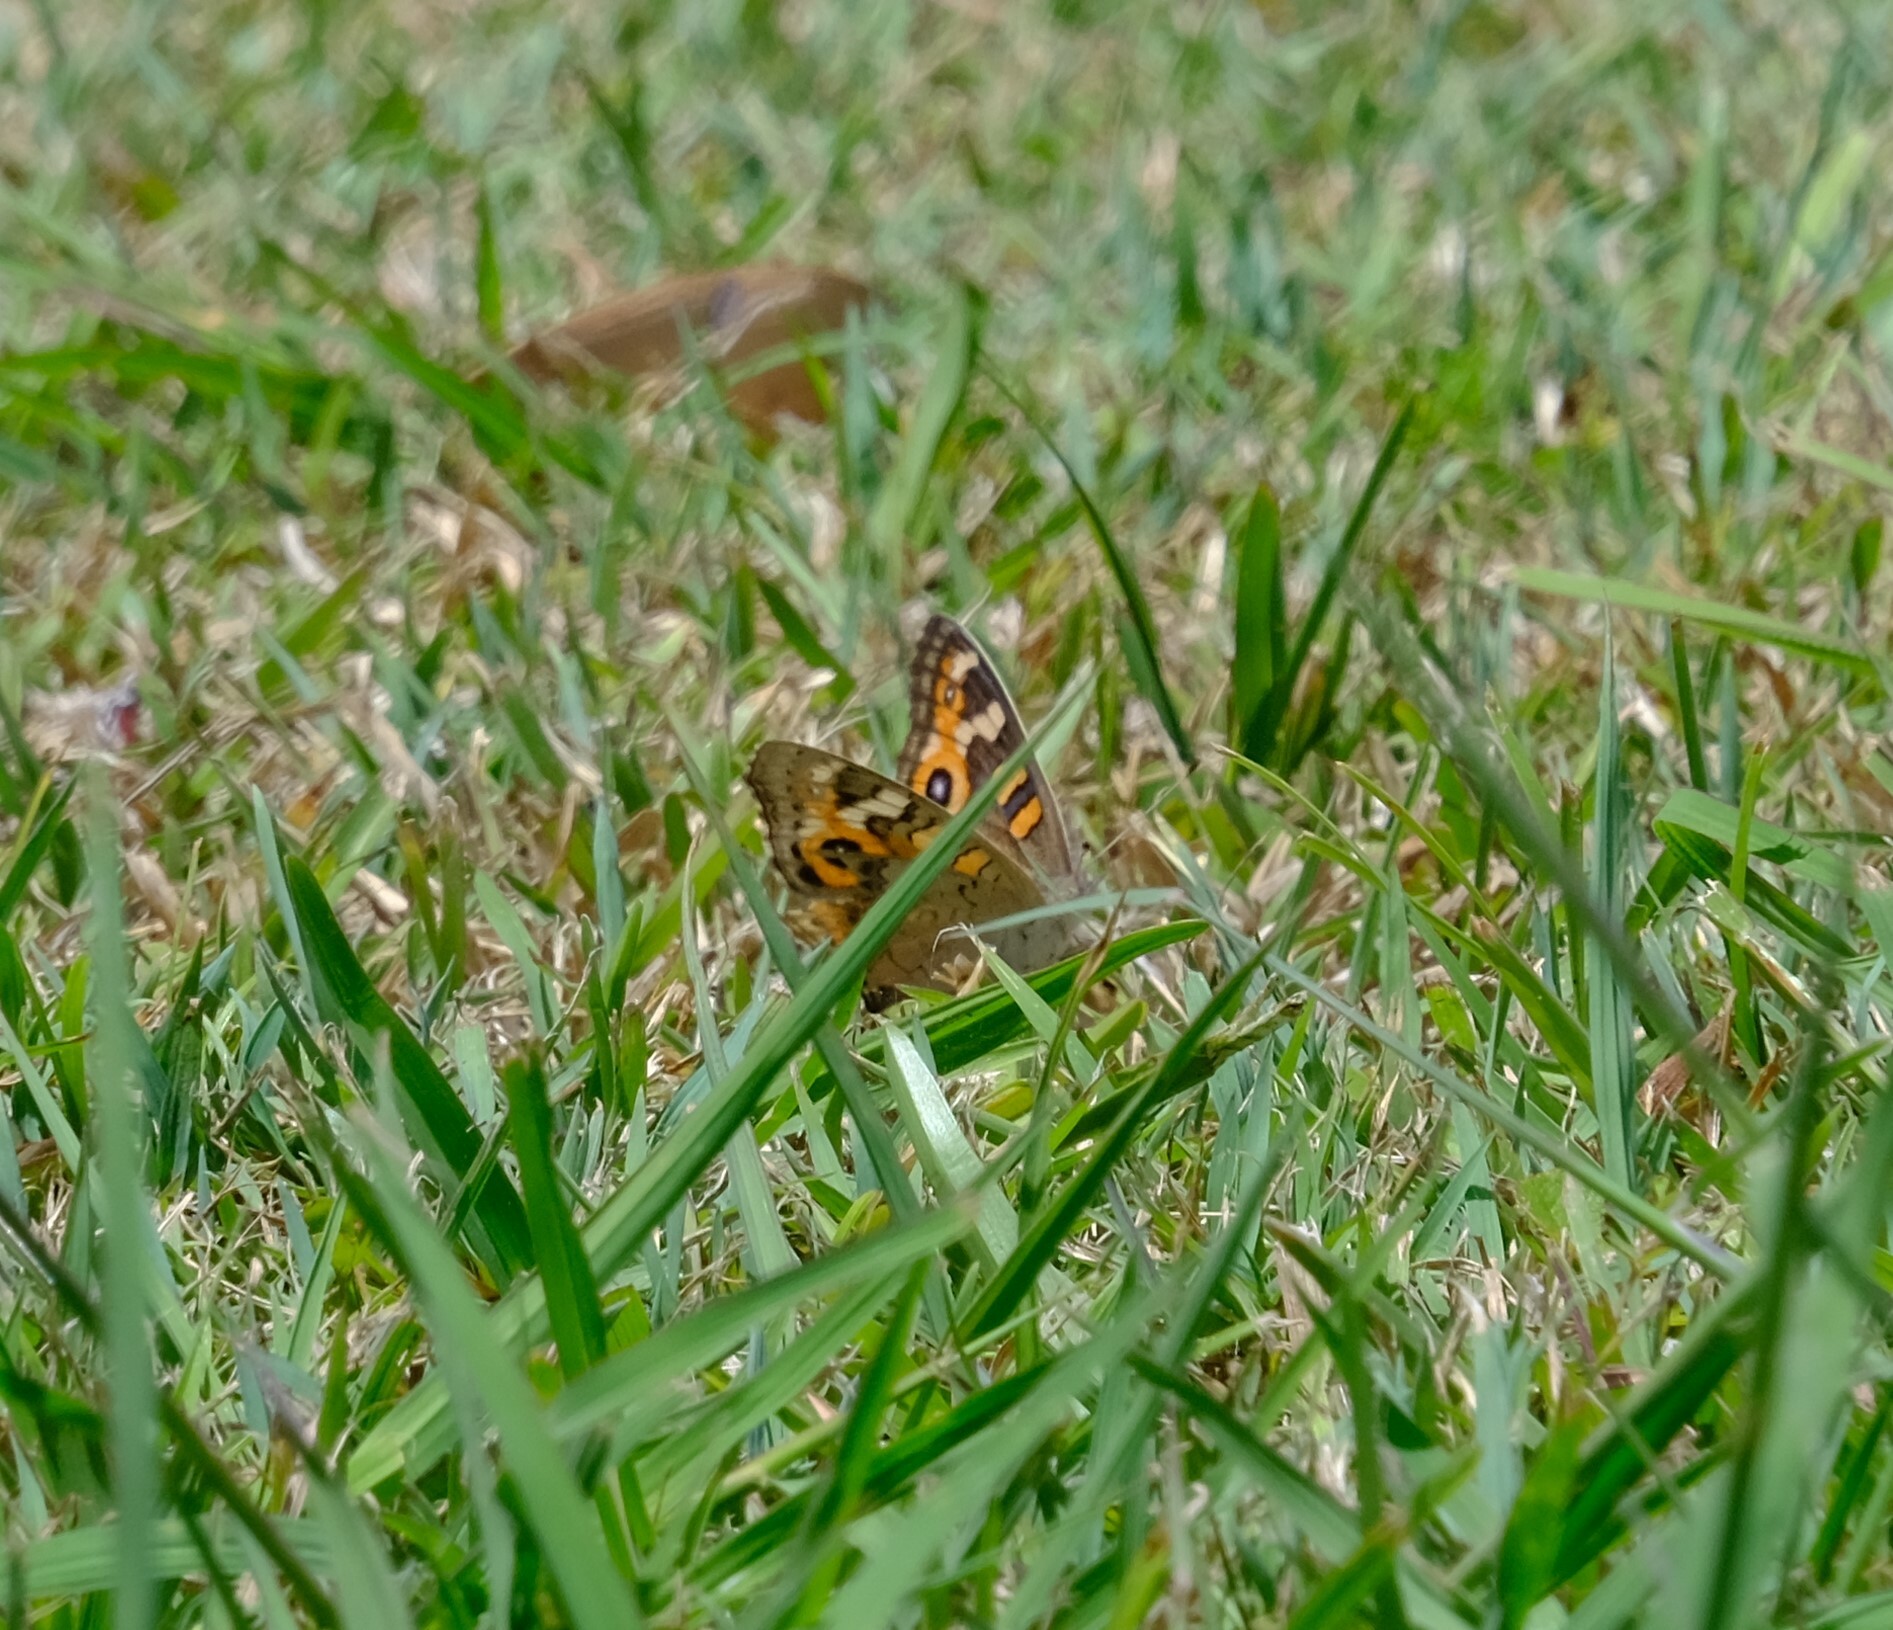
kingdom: Animalia
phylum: Arthropoda
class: Insecta
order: Lepidoptera
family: Nymphalidae
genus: Junonia
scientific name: Junonia villida
